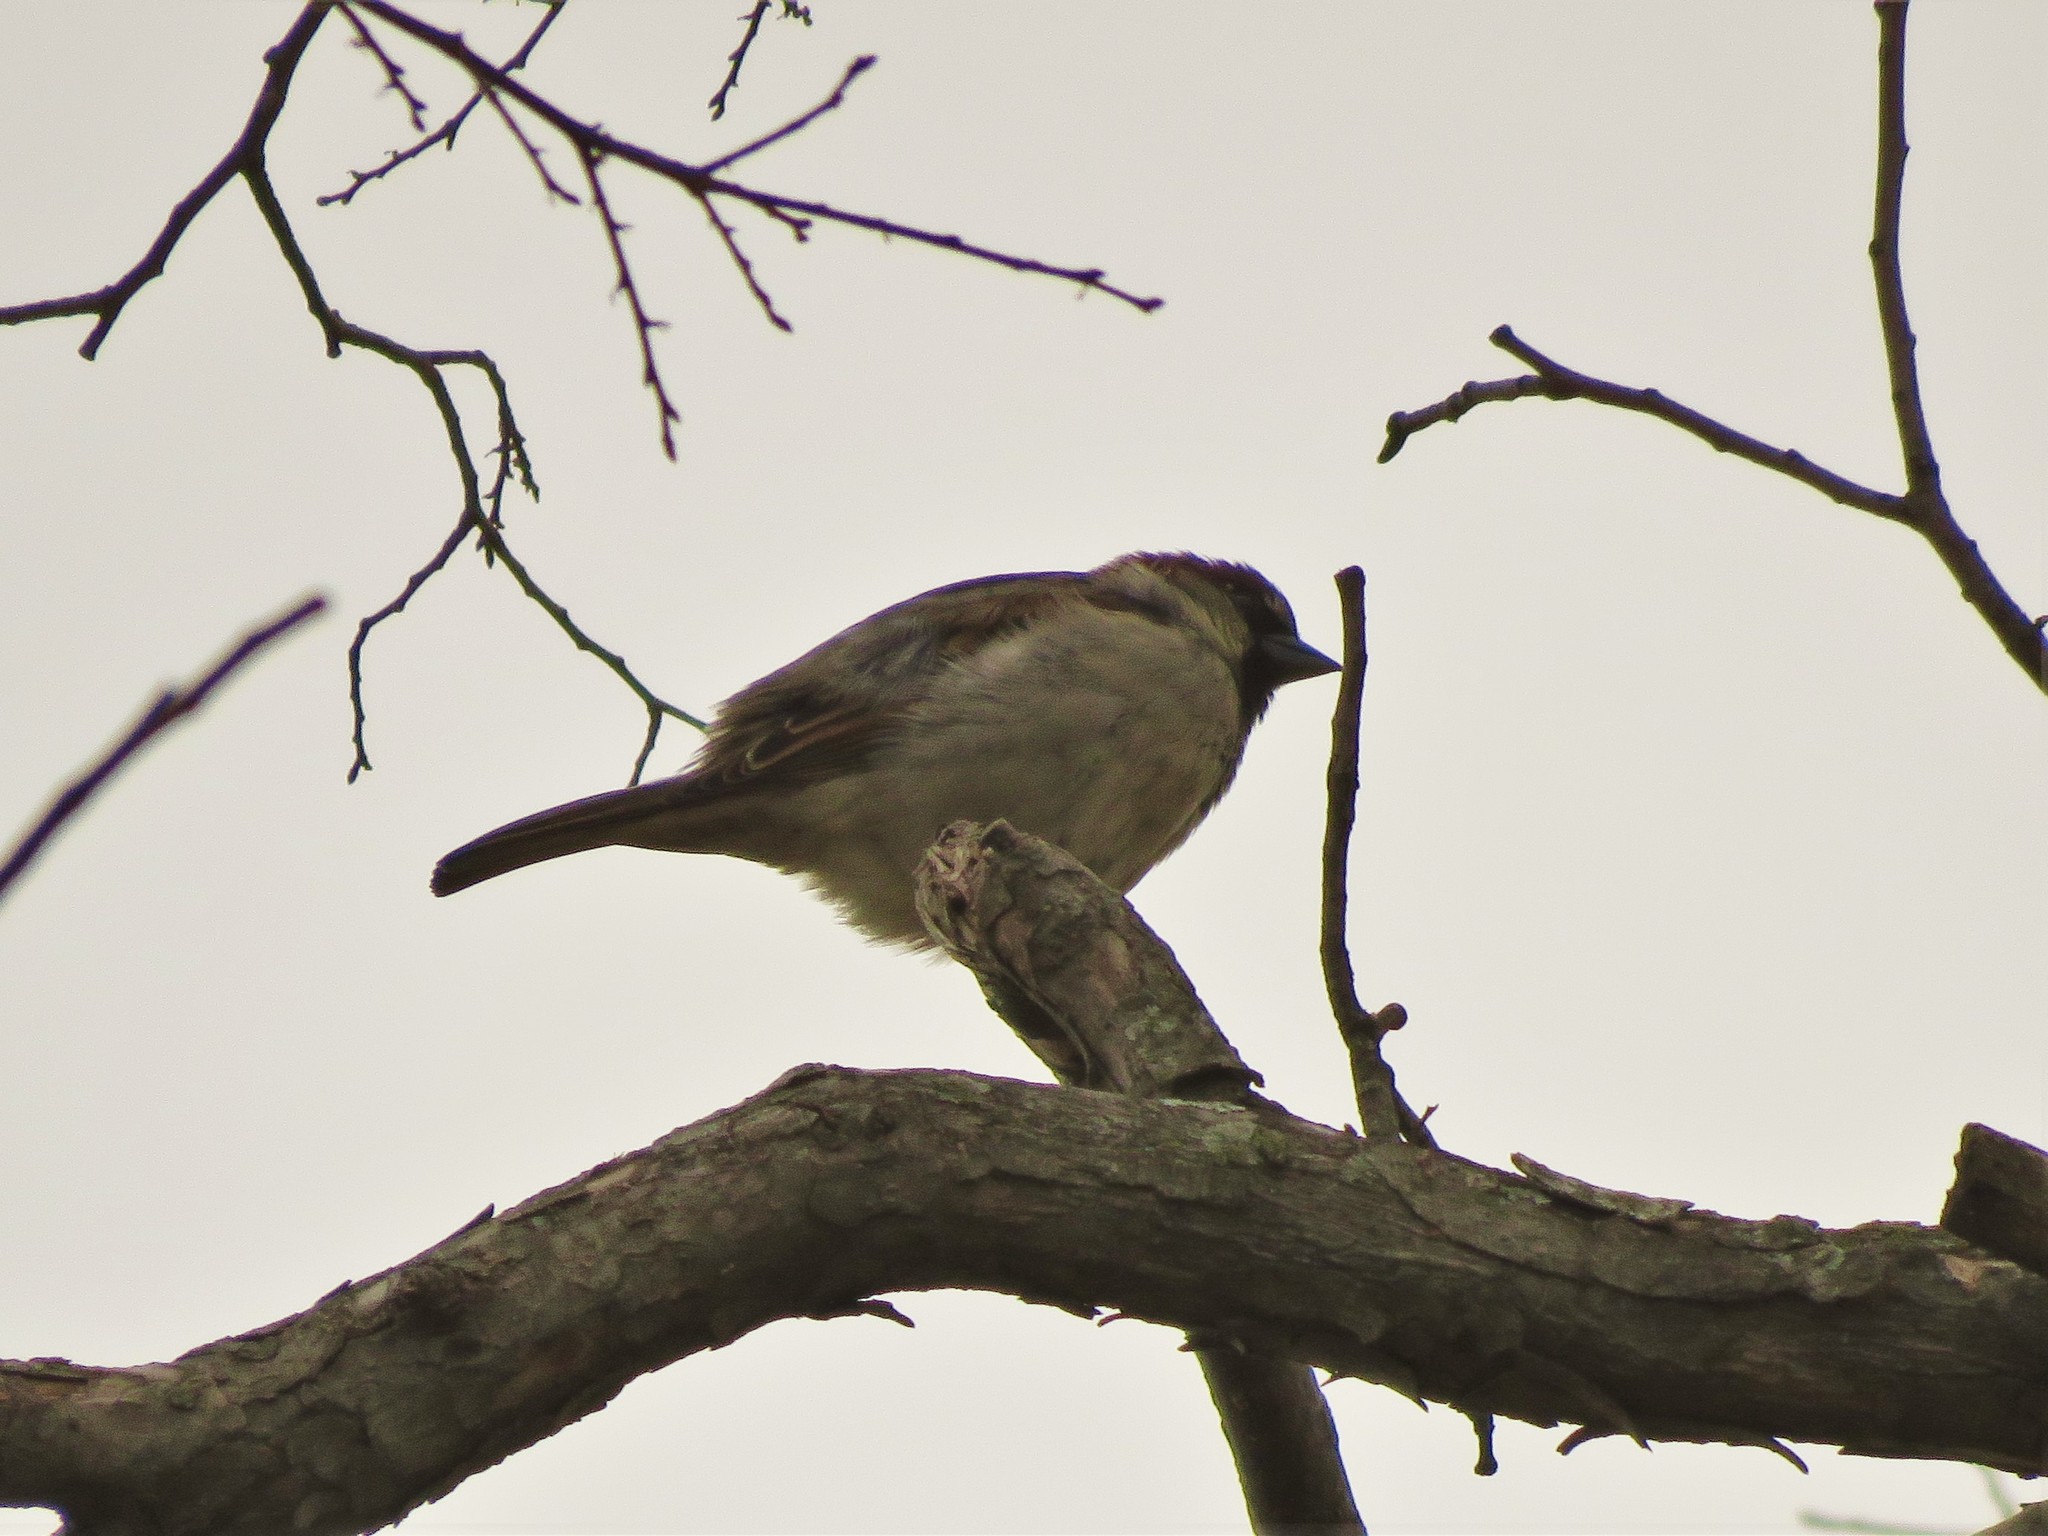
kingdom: Animalia
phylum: Chordata
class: Aves
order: Passeriformes
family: Passeridae
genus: Passer
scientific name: Passer domesticus
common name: House sparrow
